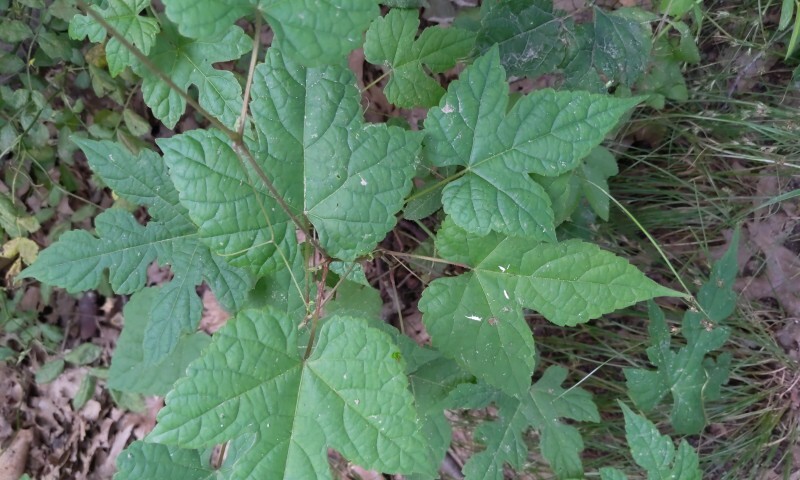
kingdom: Plantae
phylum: Tracheophyta
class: Magnoliopsida
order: Vitales
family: Vitaceae
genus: Ampelopsis
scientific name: Ampelopsis glandulosa
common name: Amur peppervine
